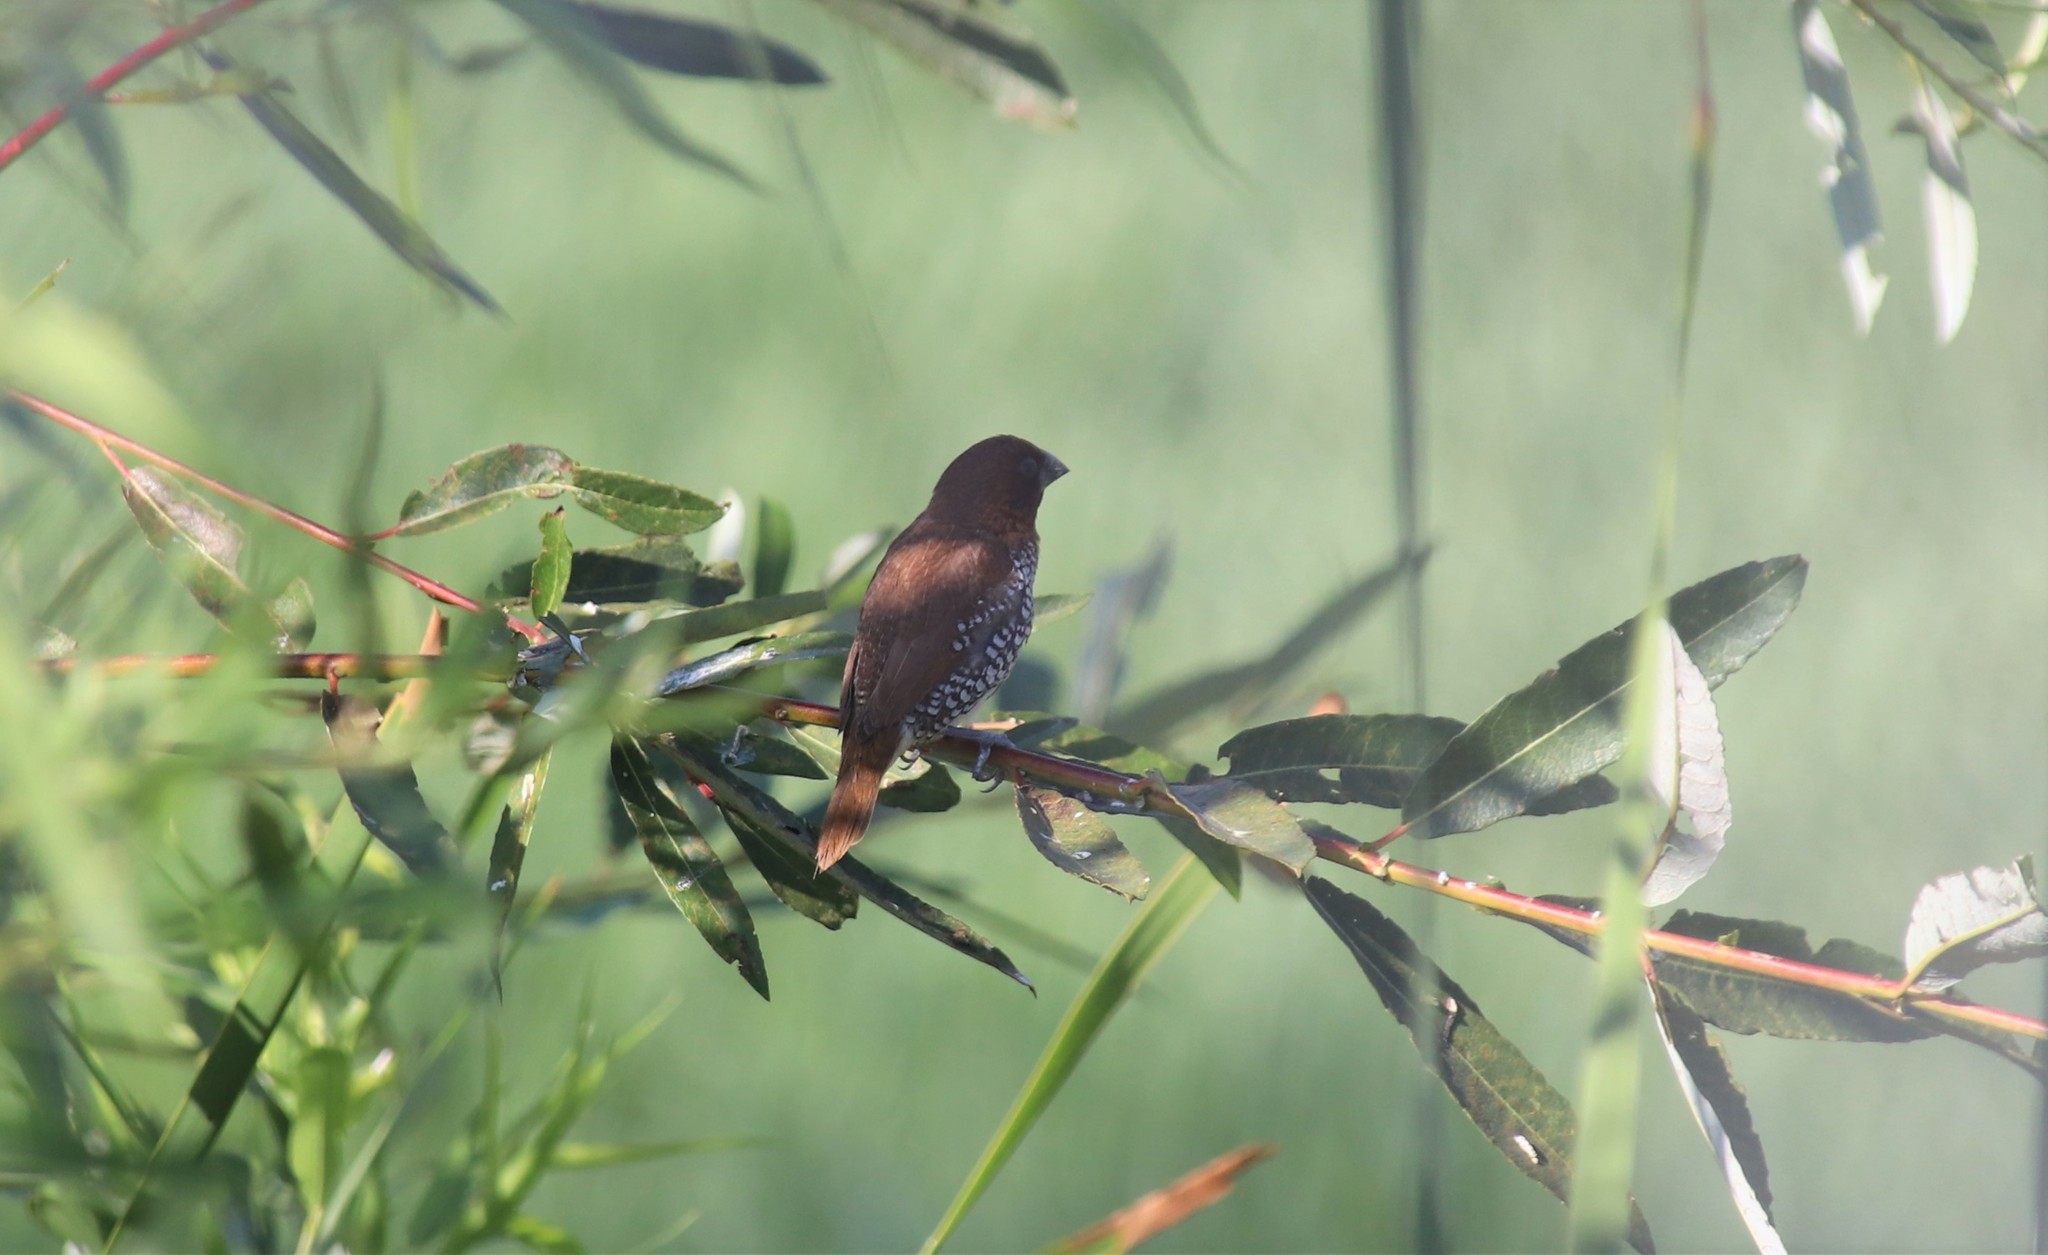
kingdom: Animalia
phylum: Chordata
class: Aves
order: Passeriformes
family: Estrildidae
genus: Lonchura
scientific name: Lonchura punctulata
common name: Scaly-breasted munia
